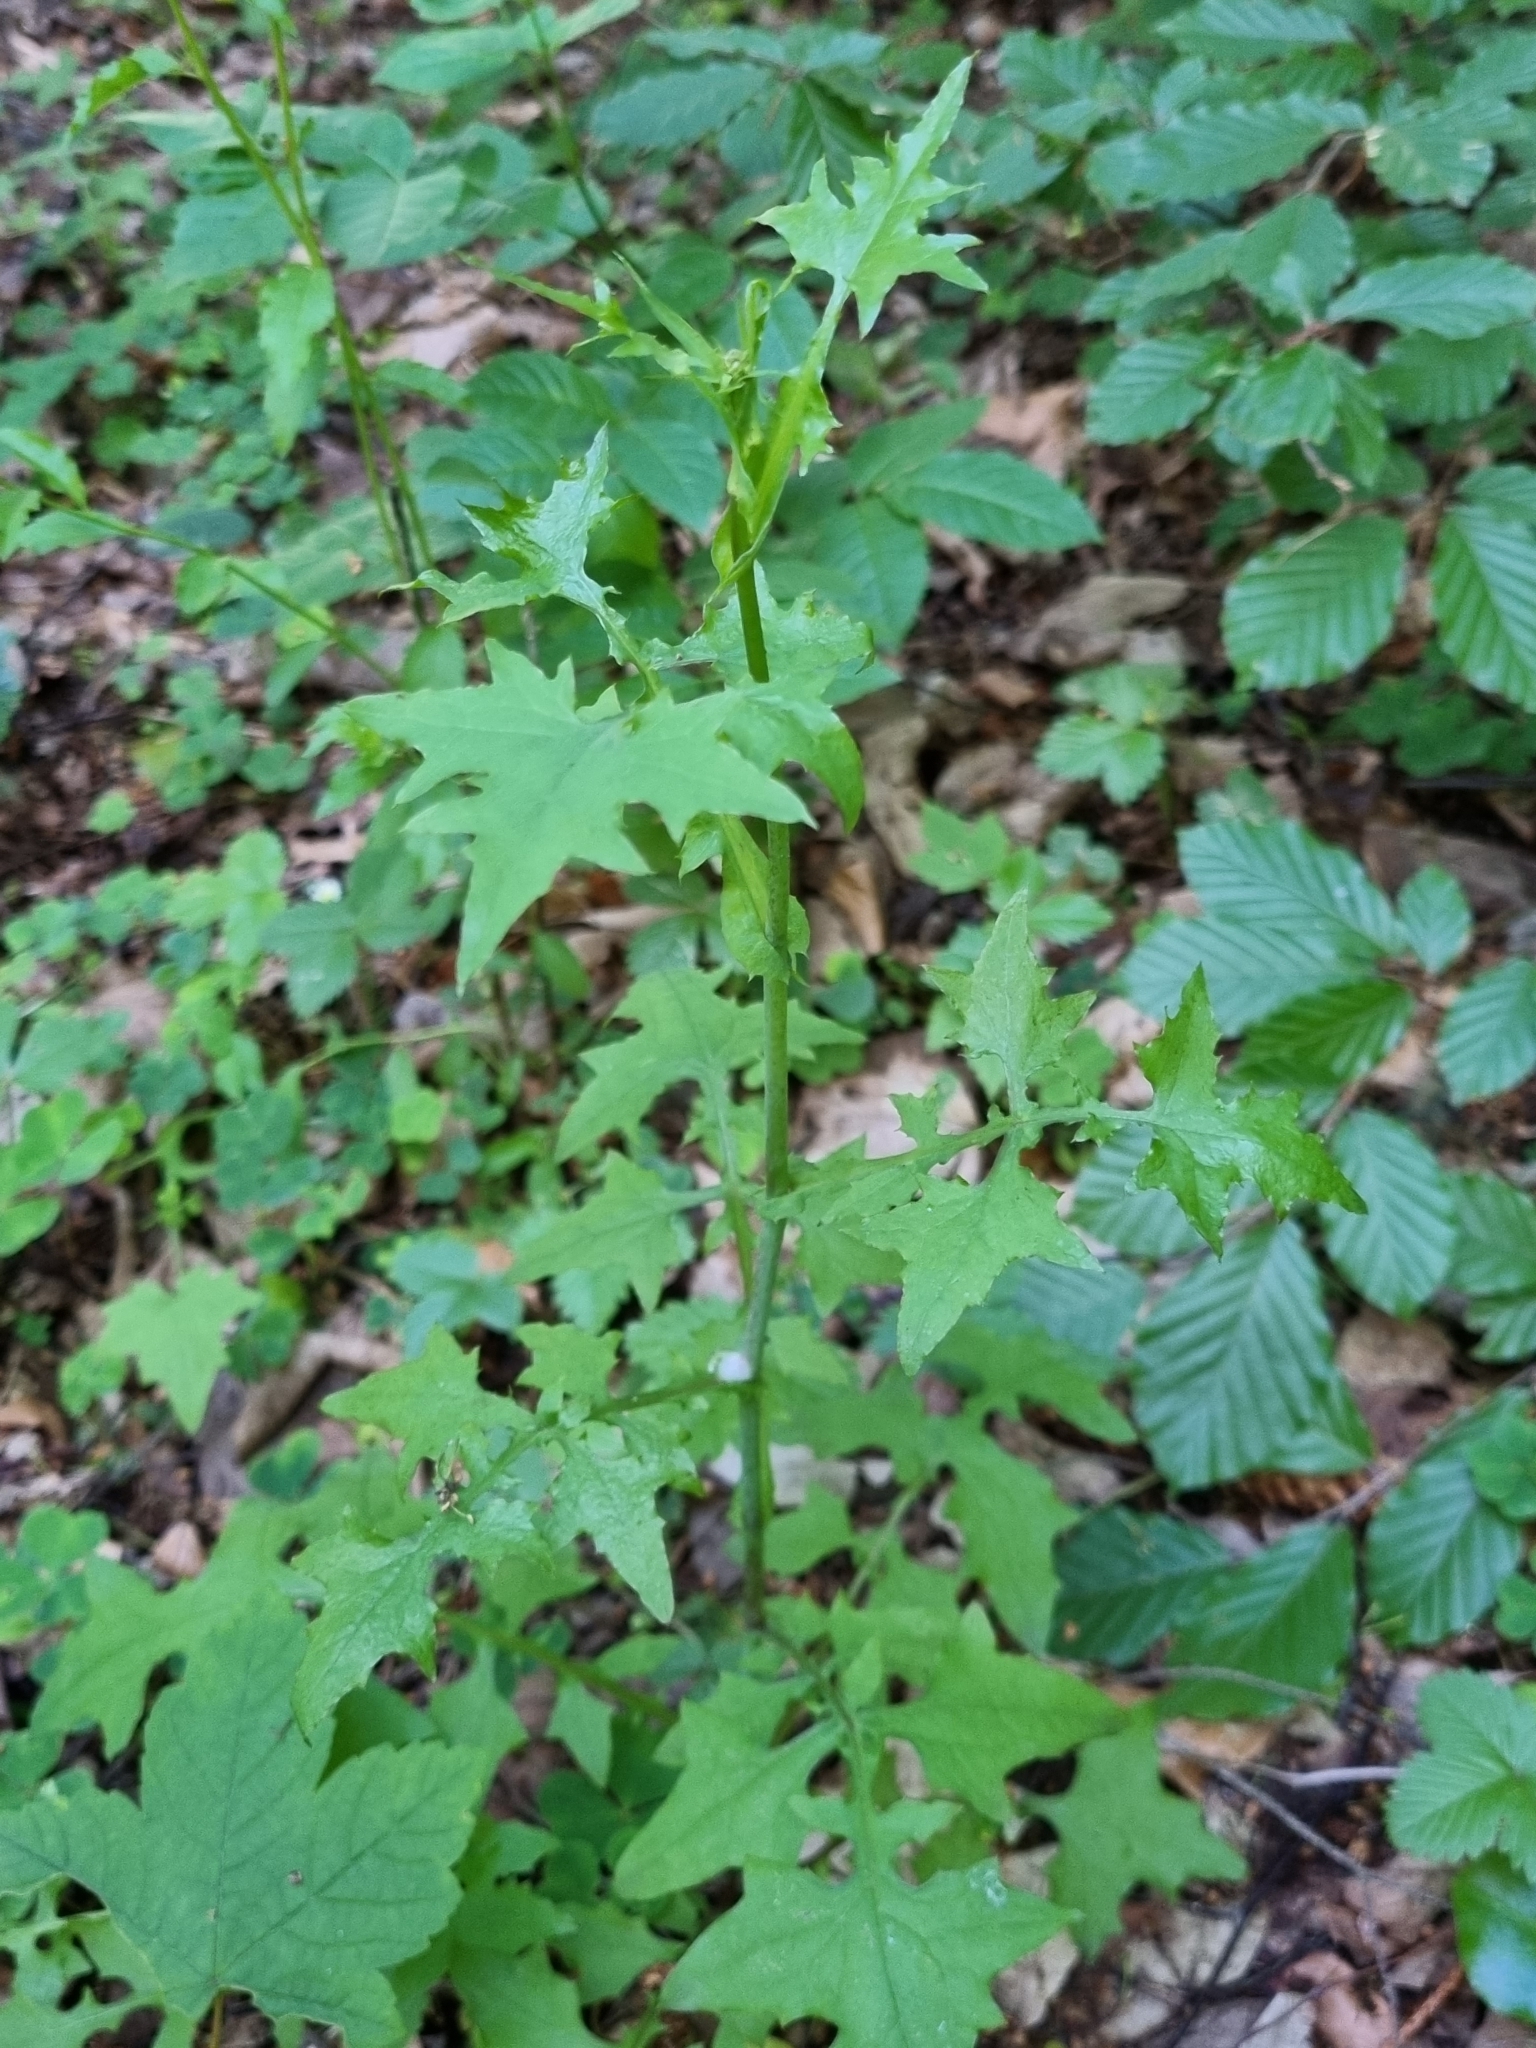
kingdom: Plantae
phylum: Tracheophyta
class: Magnoliopsida
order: Asterales
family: Asteraceae
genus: Mycelis
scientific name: Mycelis muralis
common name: Wall lettuce
